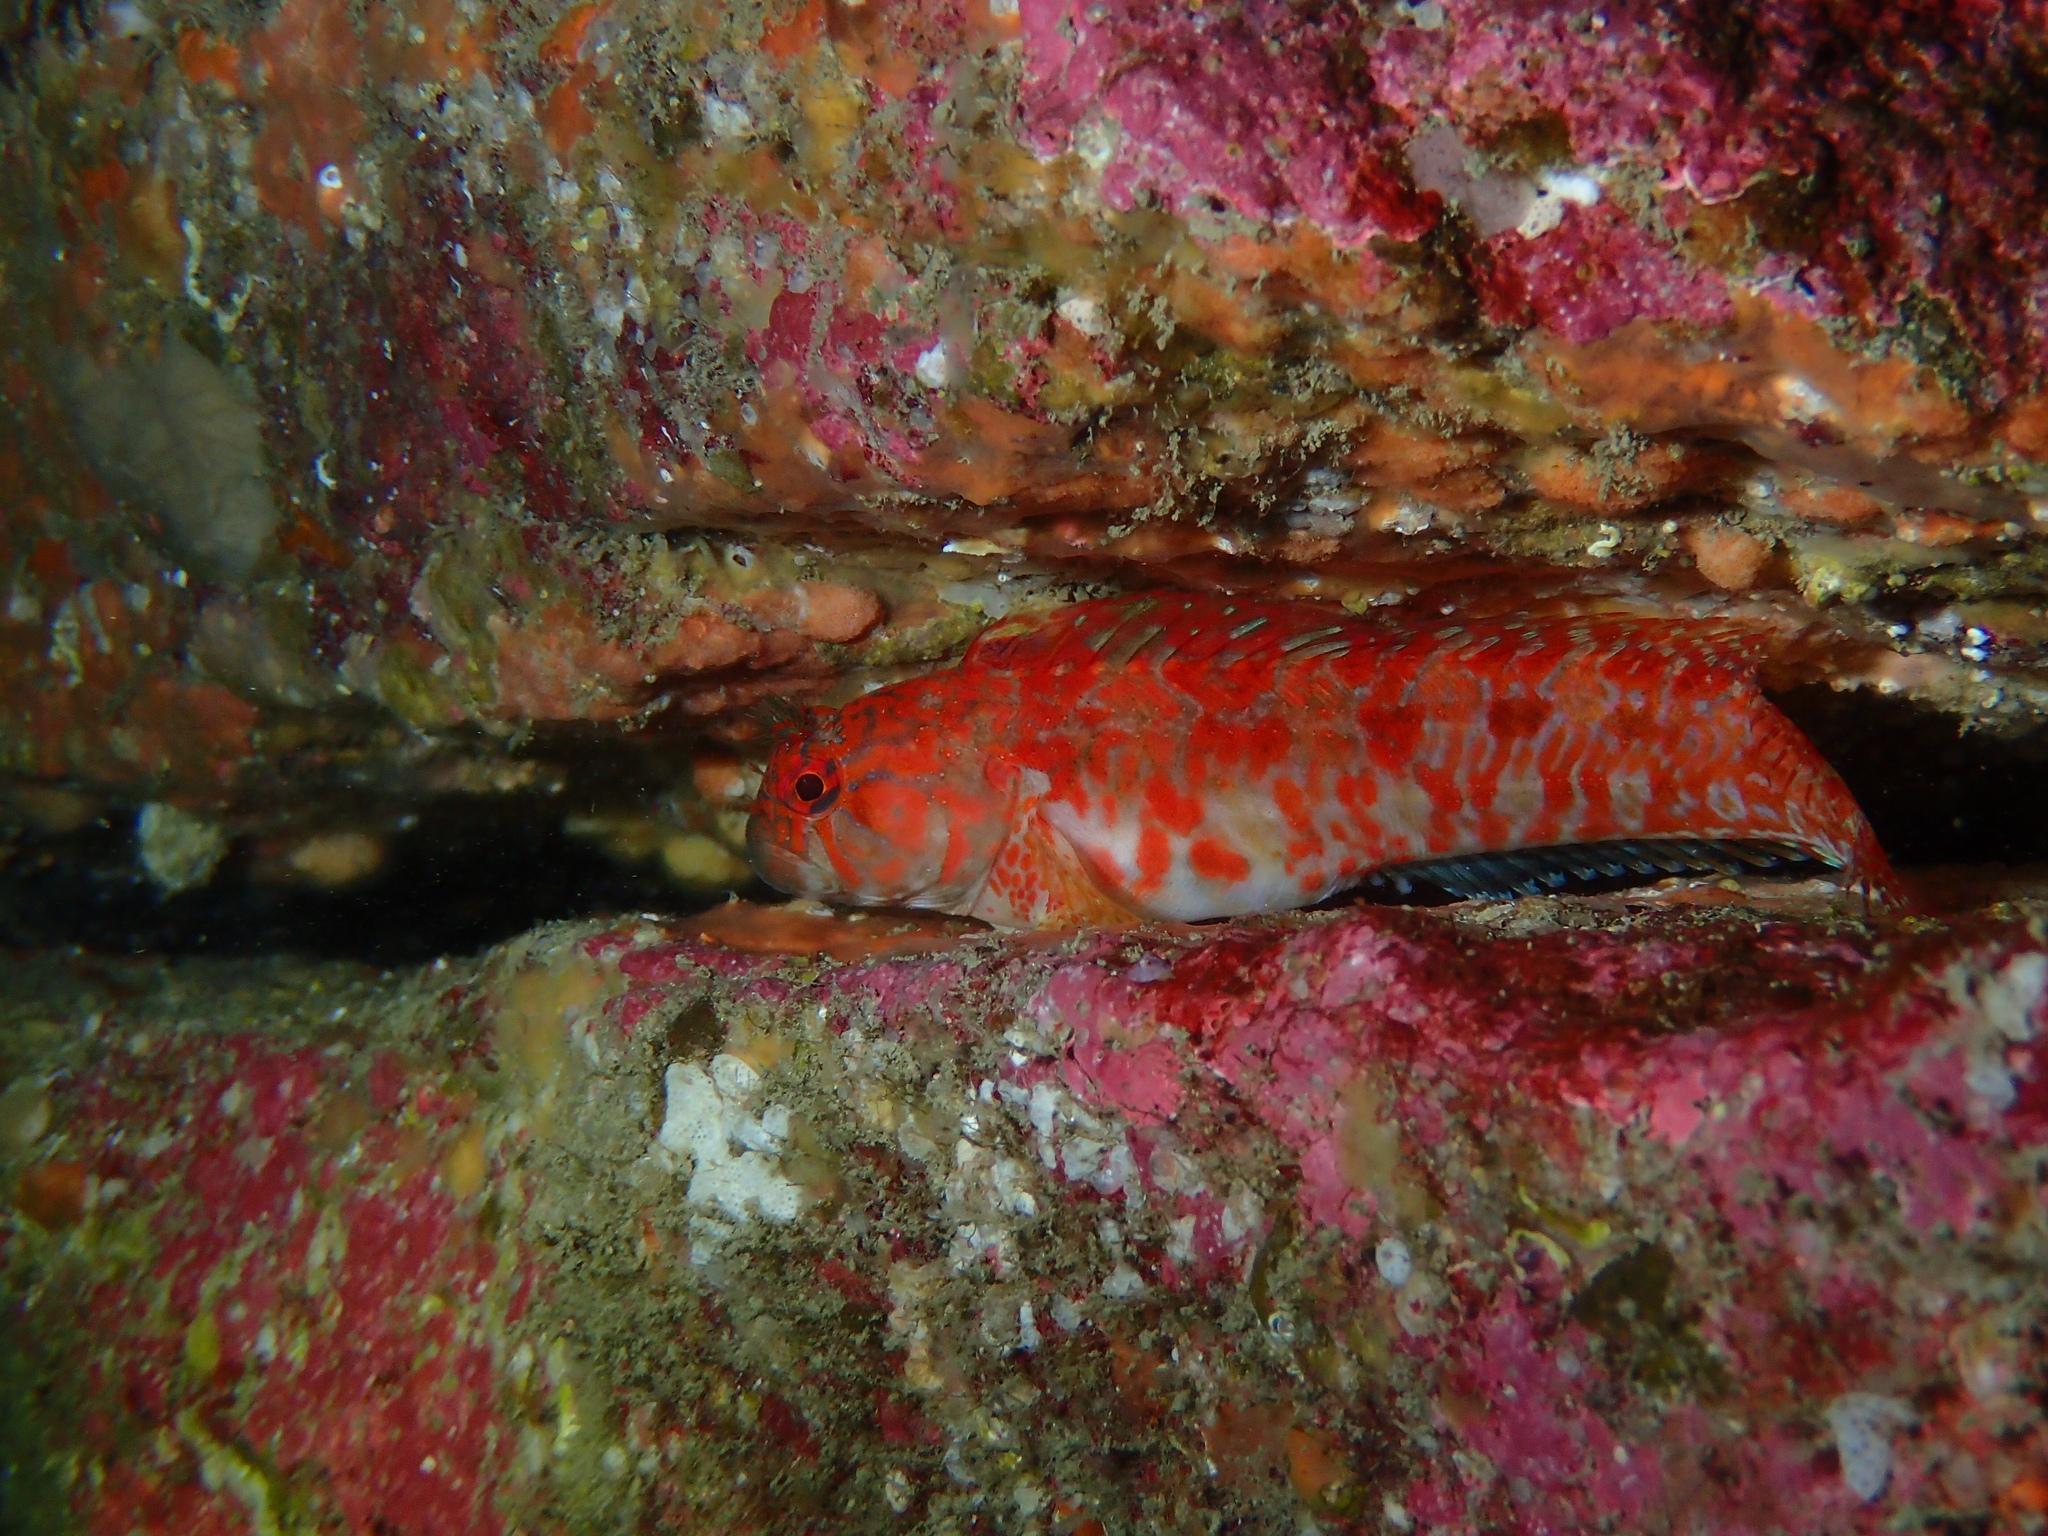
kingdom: Animalia
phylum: Chordata
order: Perciformes
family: Blenniidae
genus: Parablennius
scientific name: Parablennius ruber
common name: Portuguese blenny
